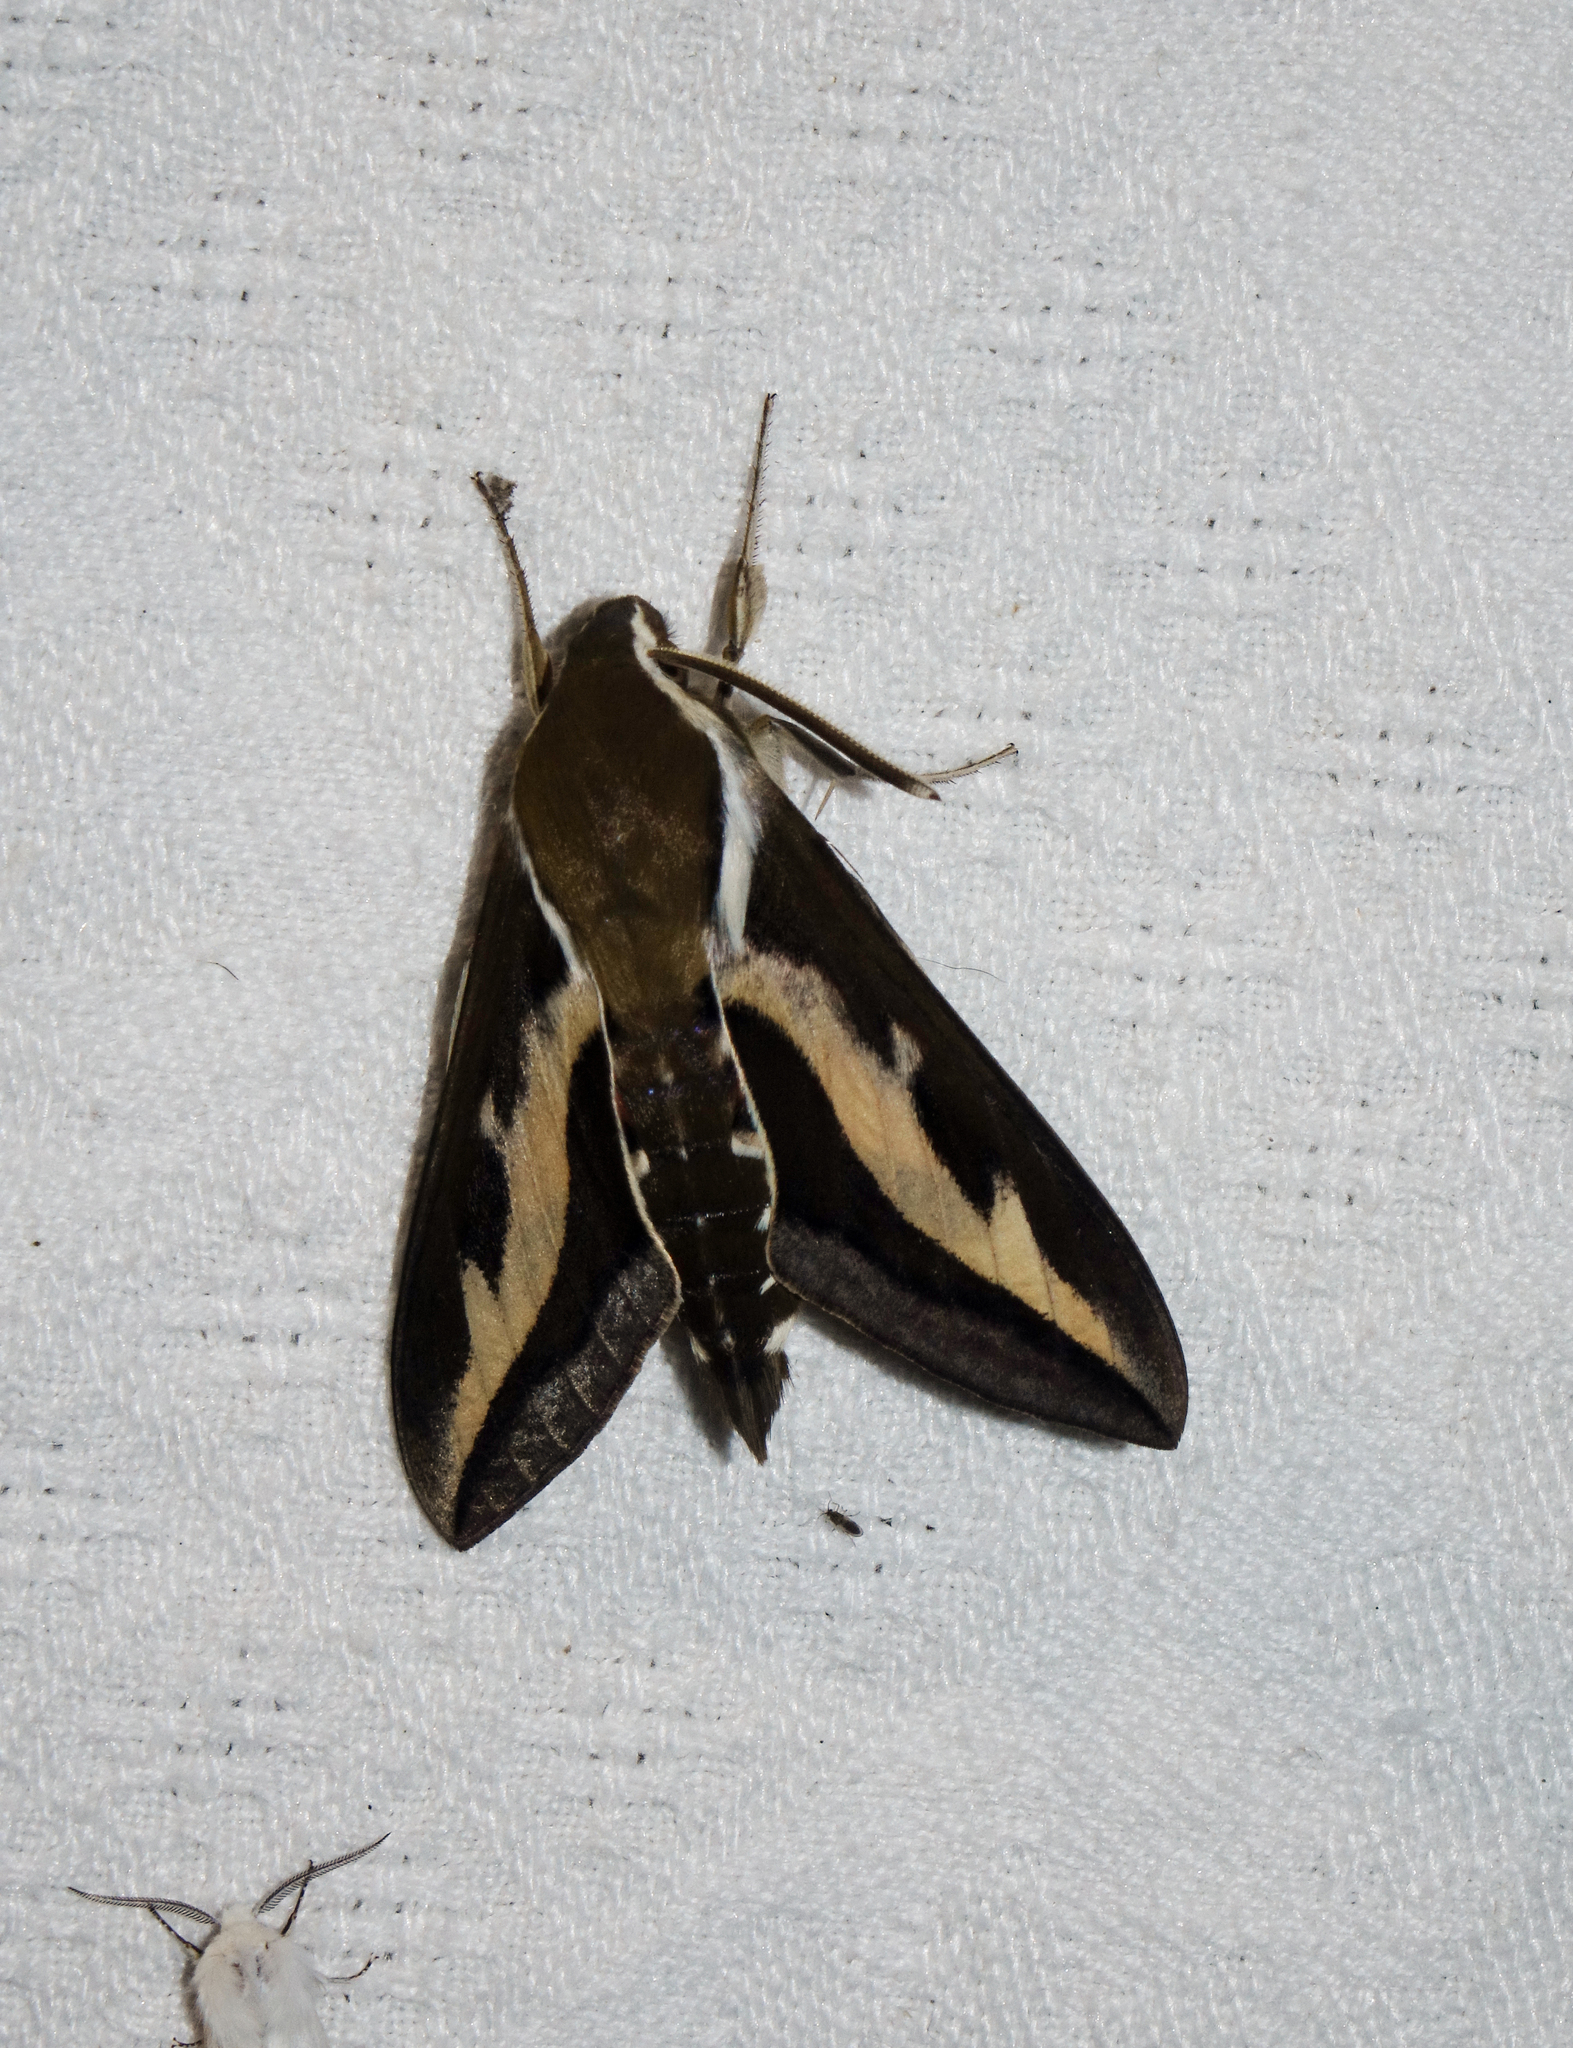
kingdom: Animalia
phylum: Arthropoda
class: Insecta
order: Lepidoptera
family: Sphingidae
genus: Hyles
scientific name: Hyles gallii
